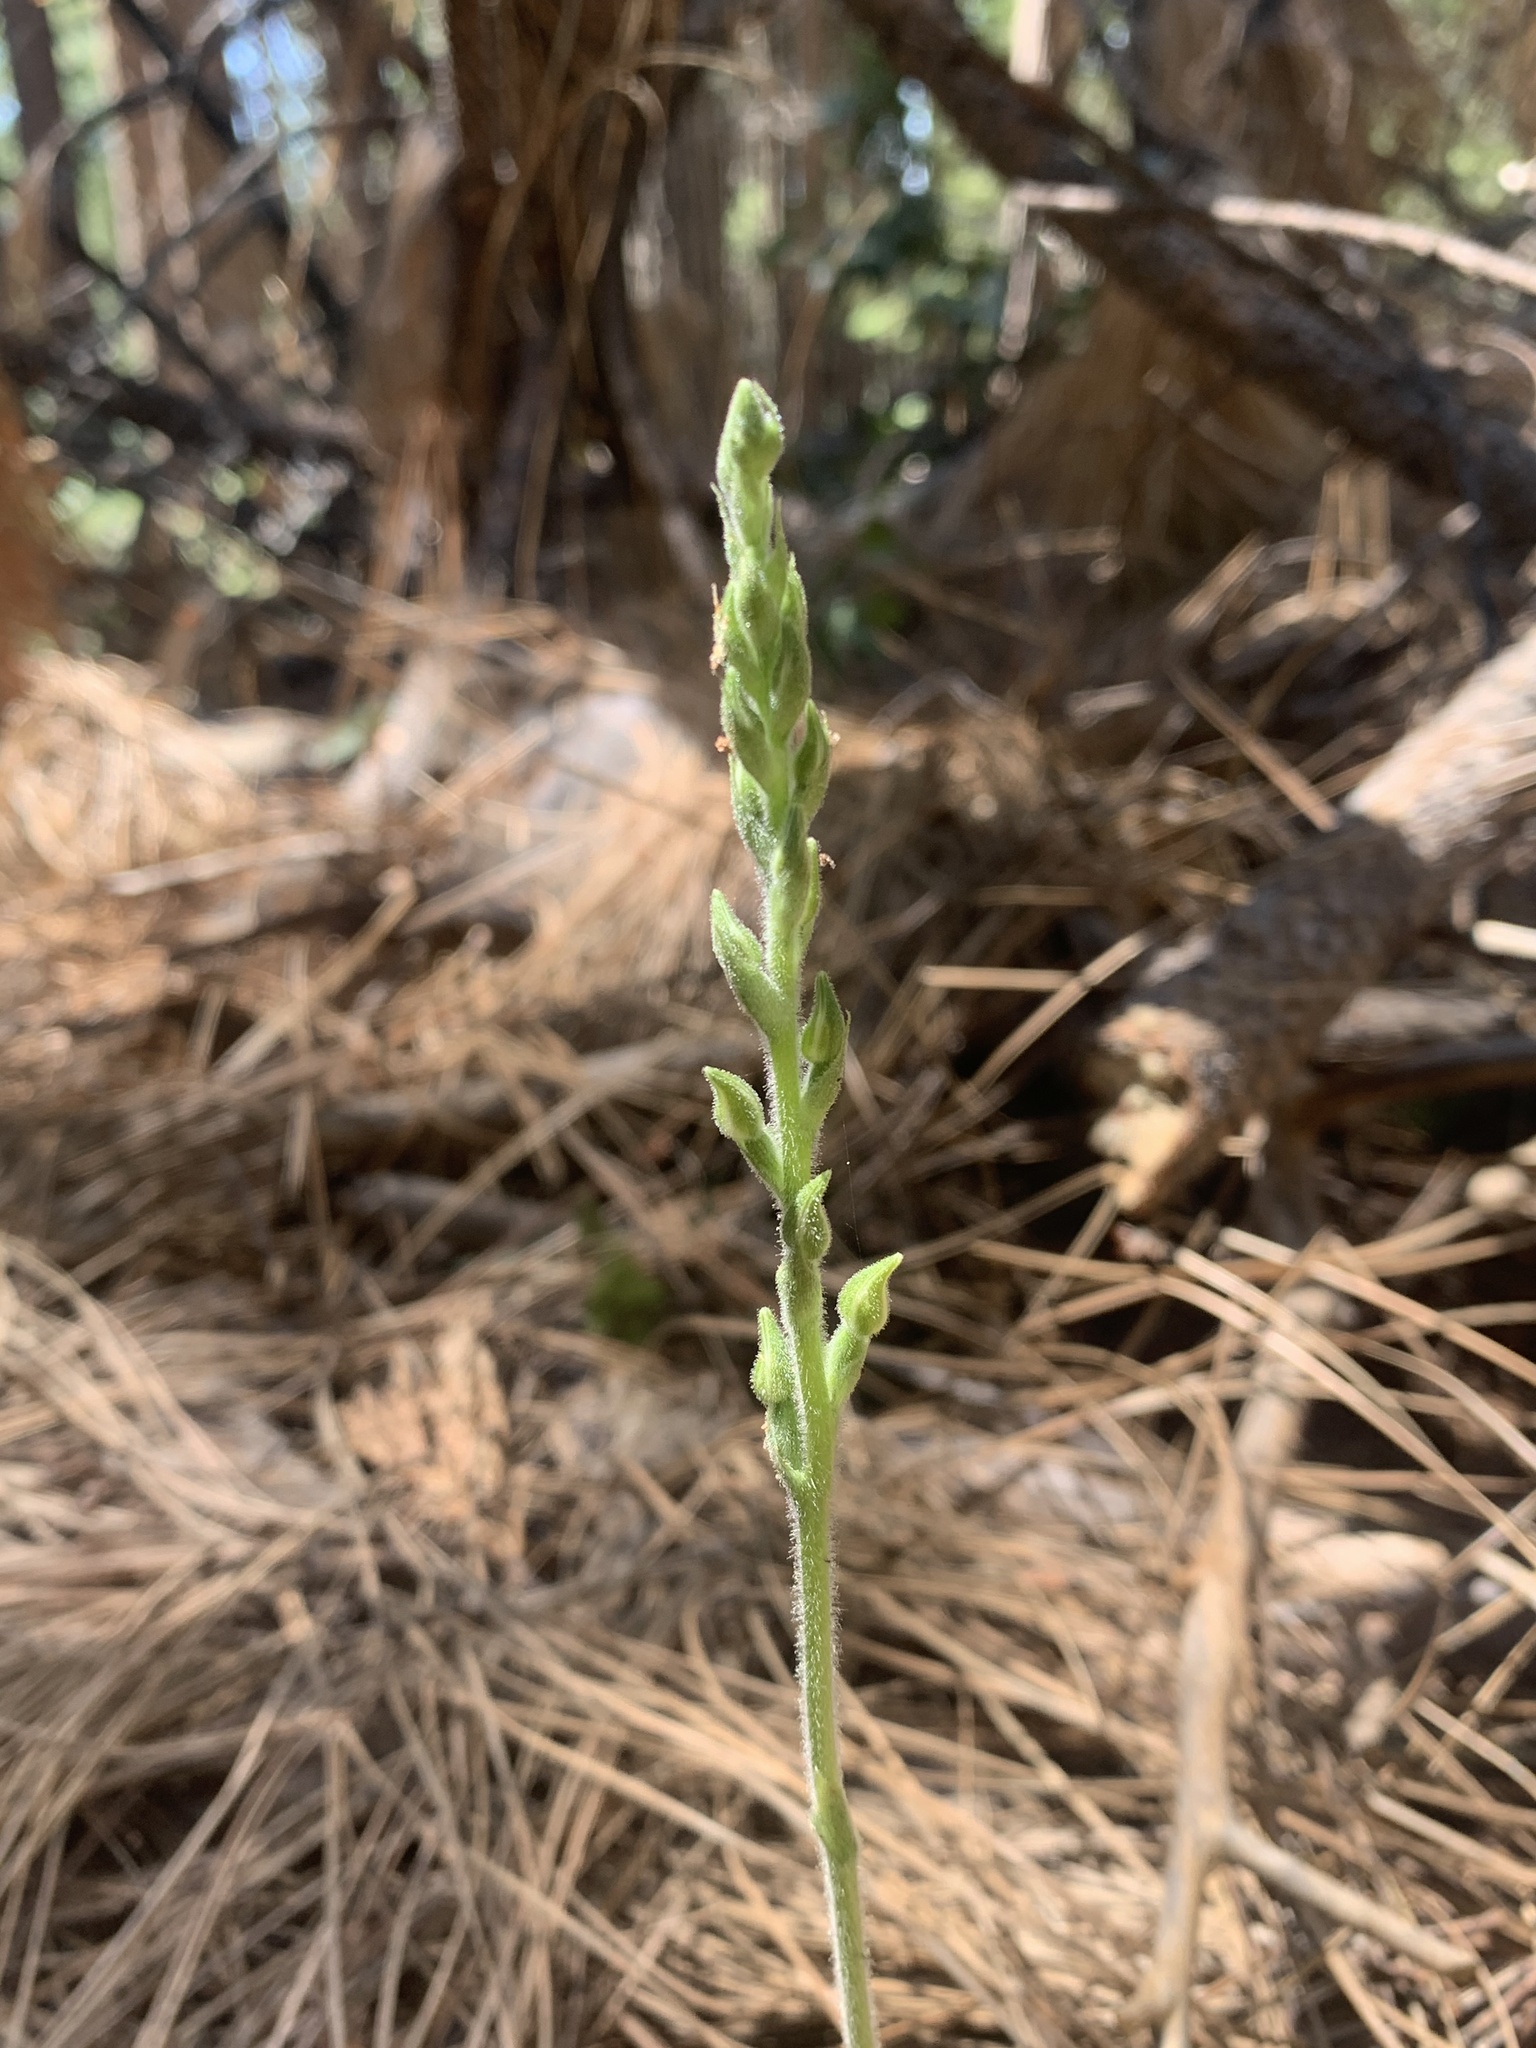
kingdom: Plantae
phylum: Tracheophyta
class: Liliopsida
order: Asparagales
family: Orchidaceae
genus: Goodyera
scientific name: Goodyera oblongifolia
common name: Giant rattlesnake-plantain
